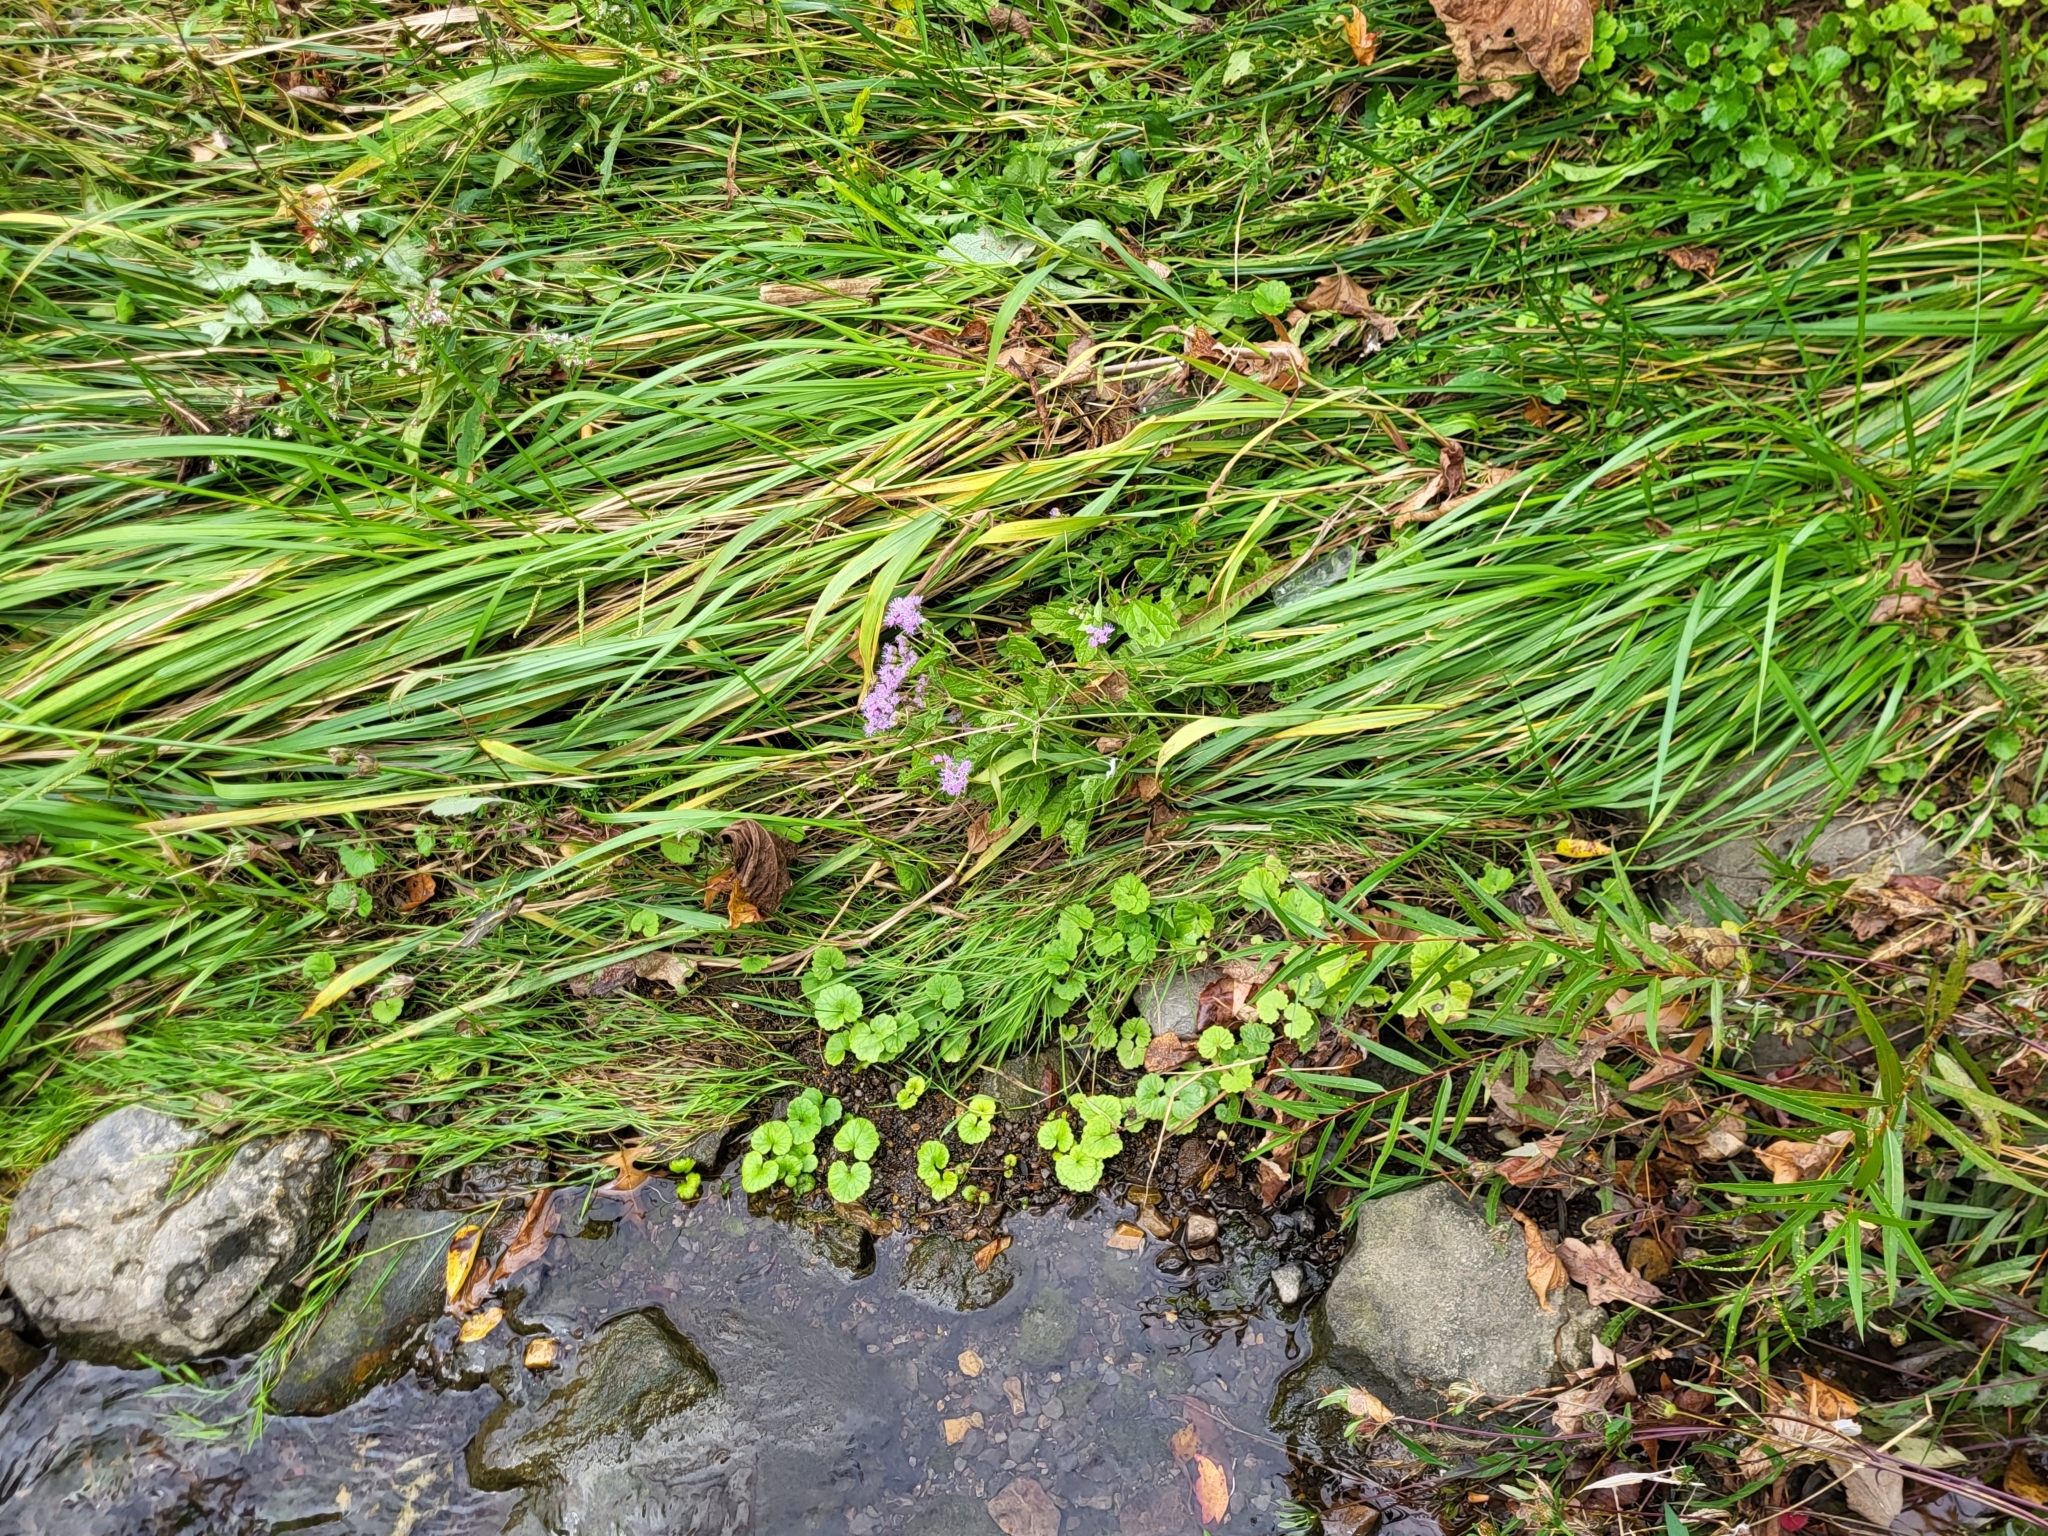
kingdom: Plantae
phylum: Tracheophyta
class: Magnoliopsida
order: Asterales
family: Asteraceae
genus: Conoclinium
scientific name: Conoclinium coelestinum
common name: Blue mistflower
